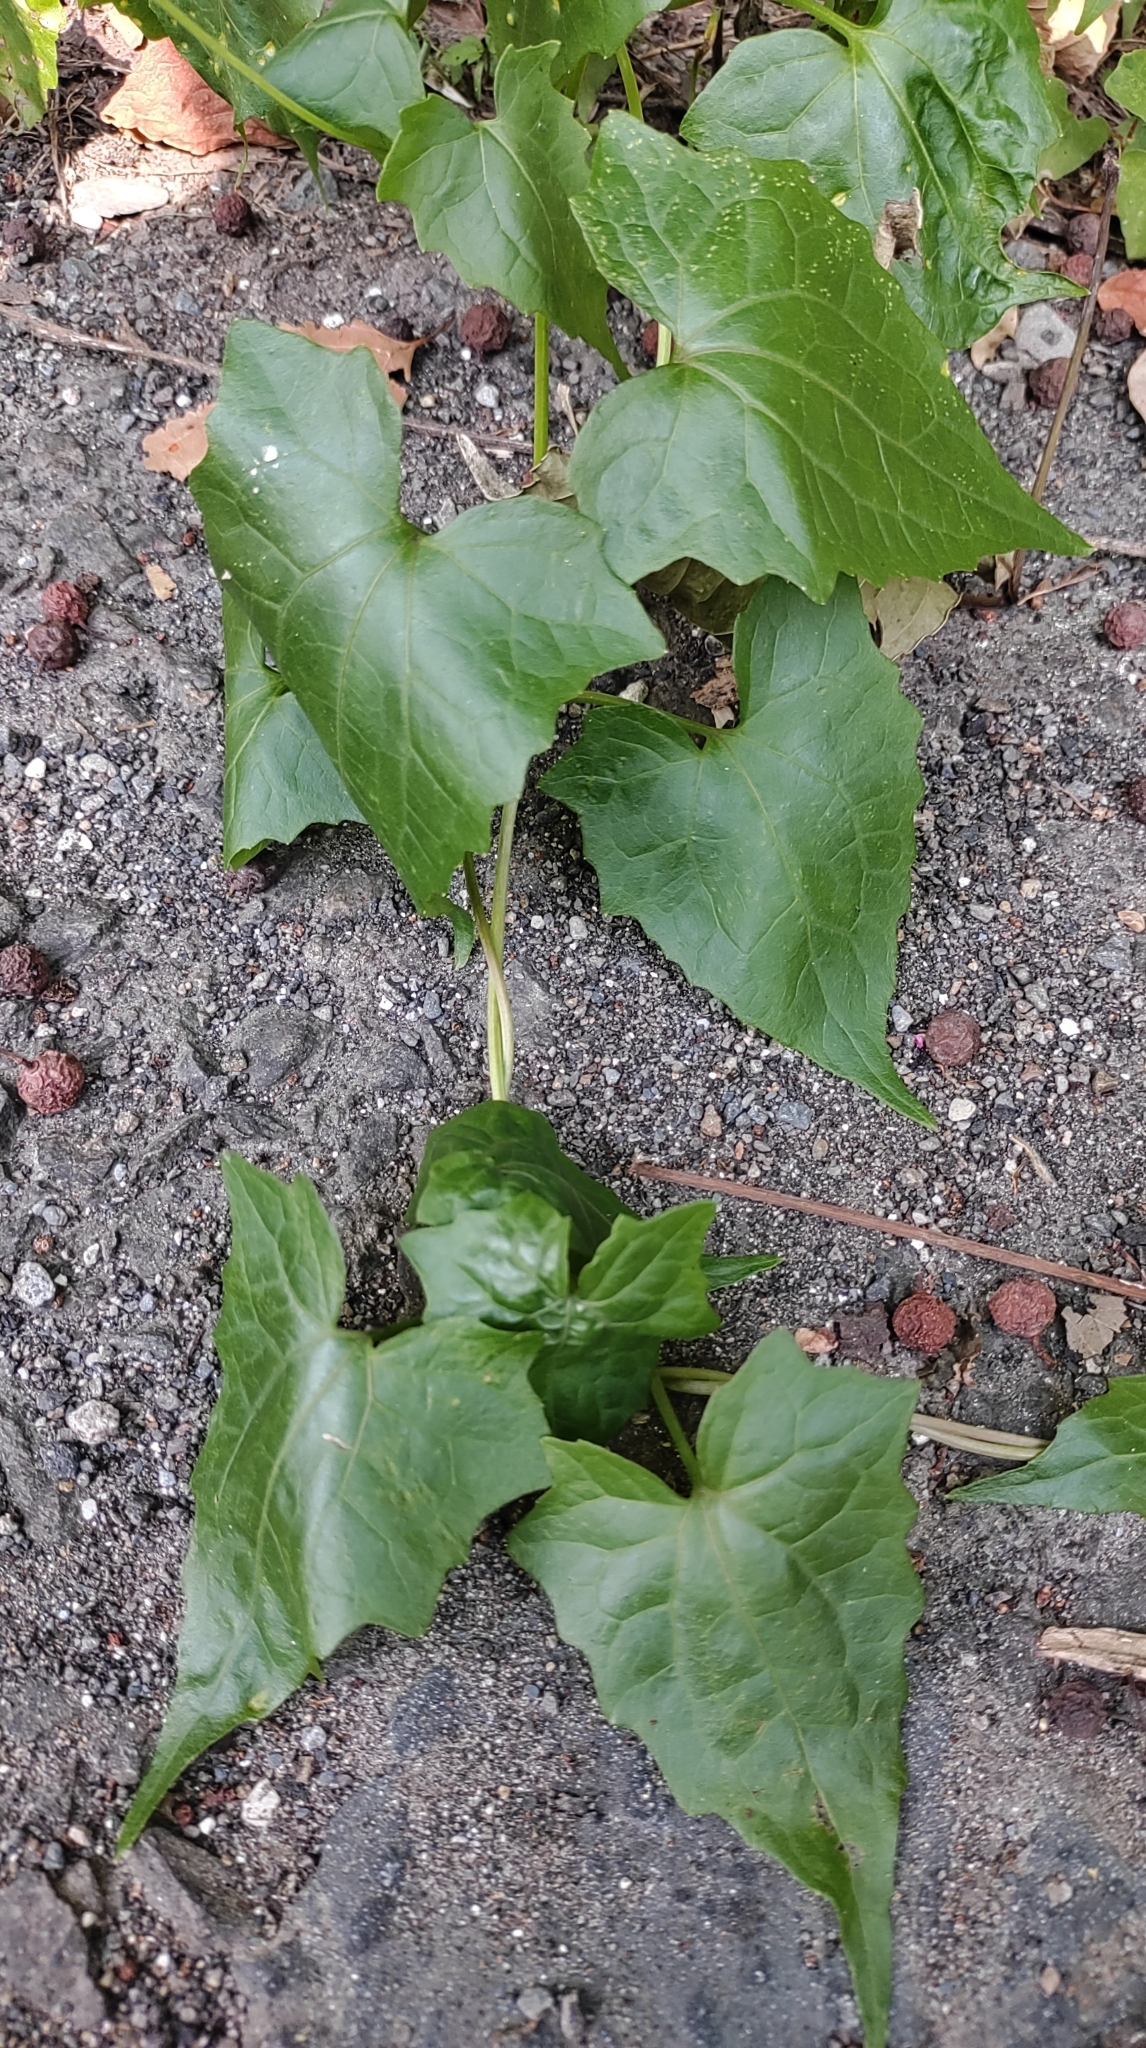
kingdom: Plantae
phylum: Tracheophyta
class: Magnoliopsida
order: Asterales
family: Asteraceae
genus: Mikania
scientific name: Mikania micrantha
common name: Mile-a-minute
